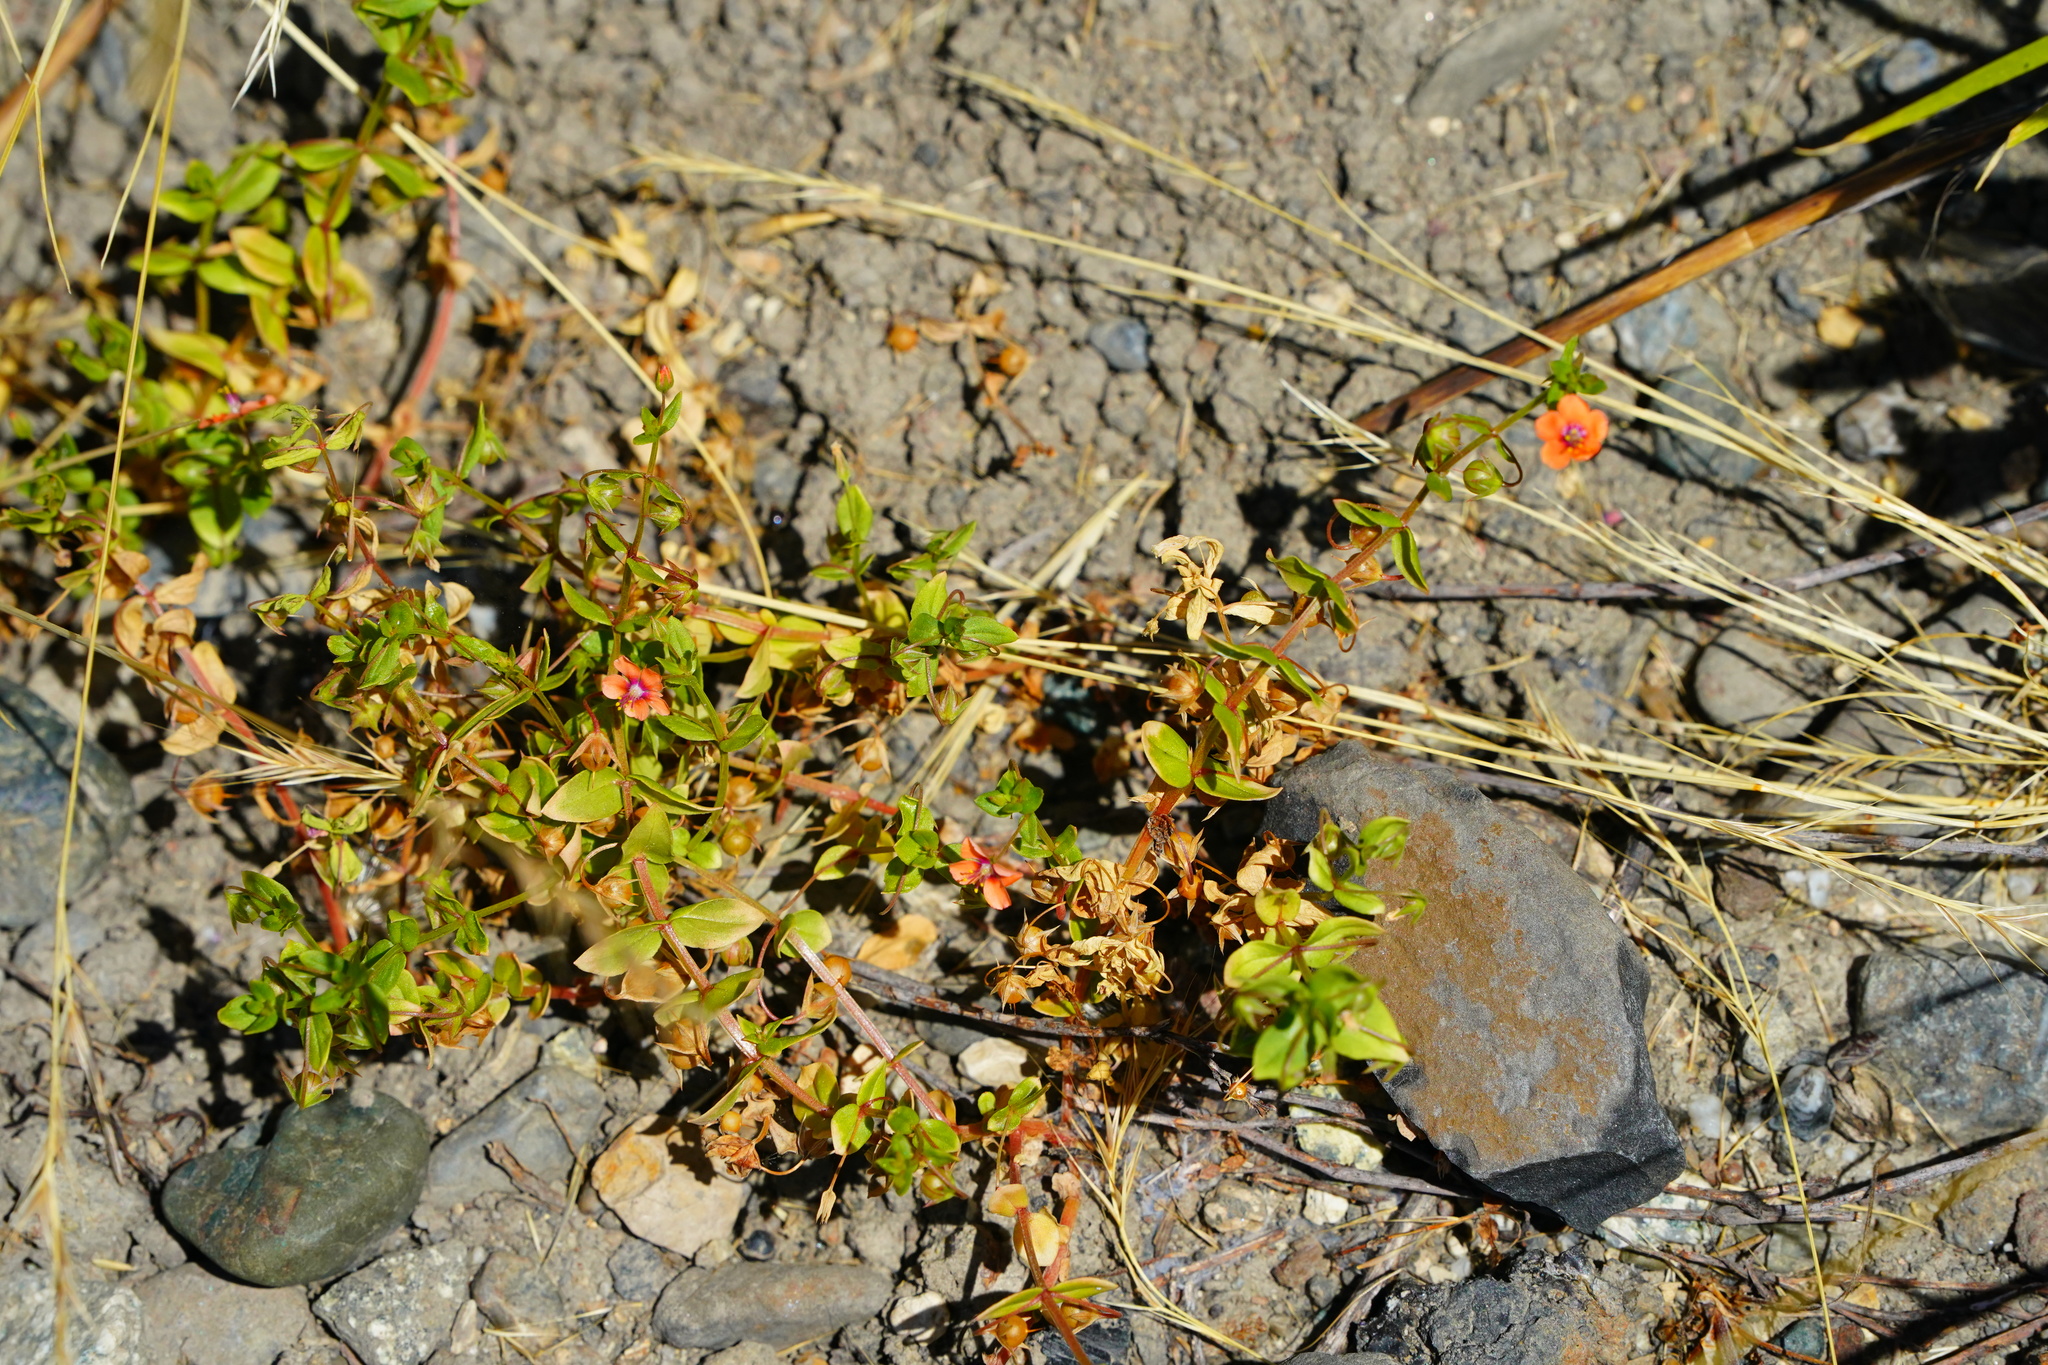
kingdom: Plantae
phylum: Tracheophyta
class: Magnoliopsida
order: Ericales
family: Primulaceae
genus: Lysimachia
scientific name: Lysimachia arvensis
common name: Scarlet pimpernel
